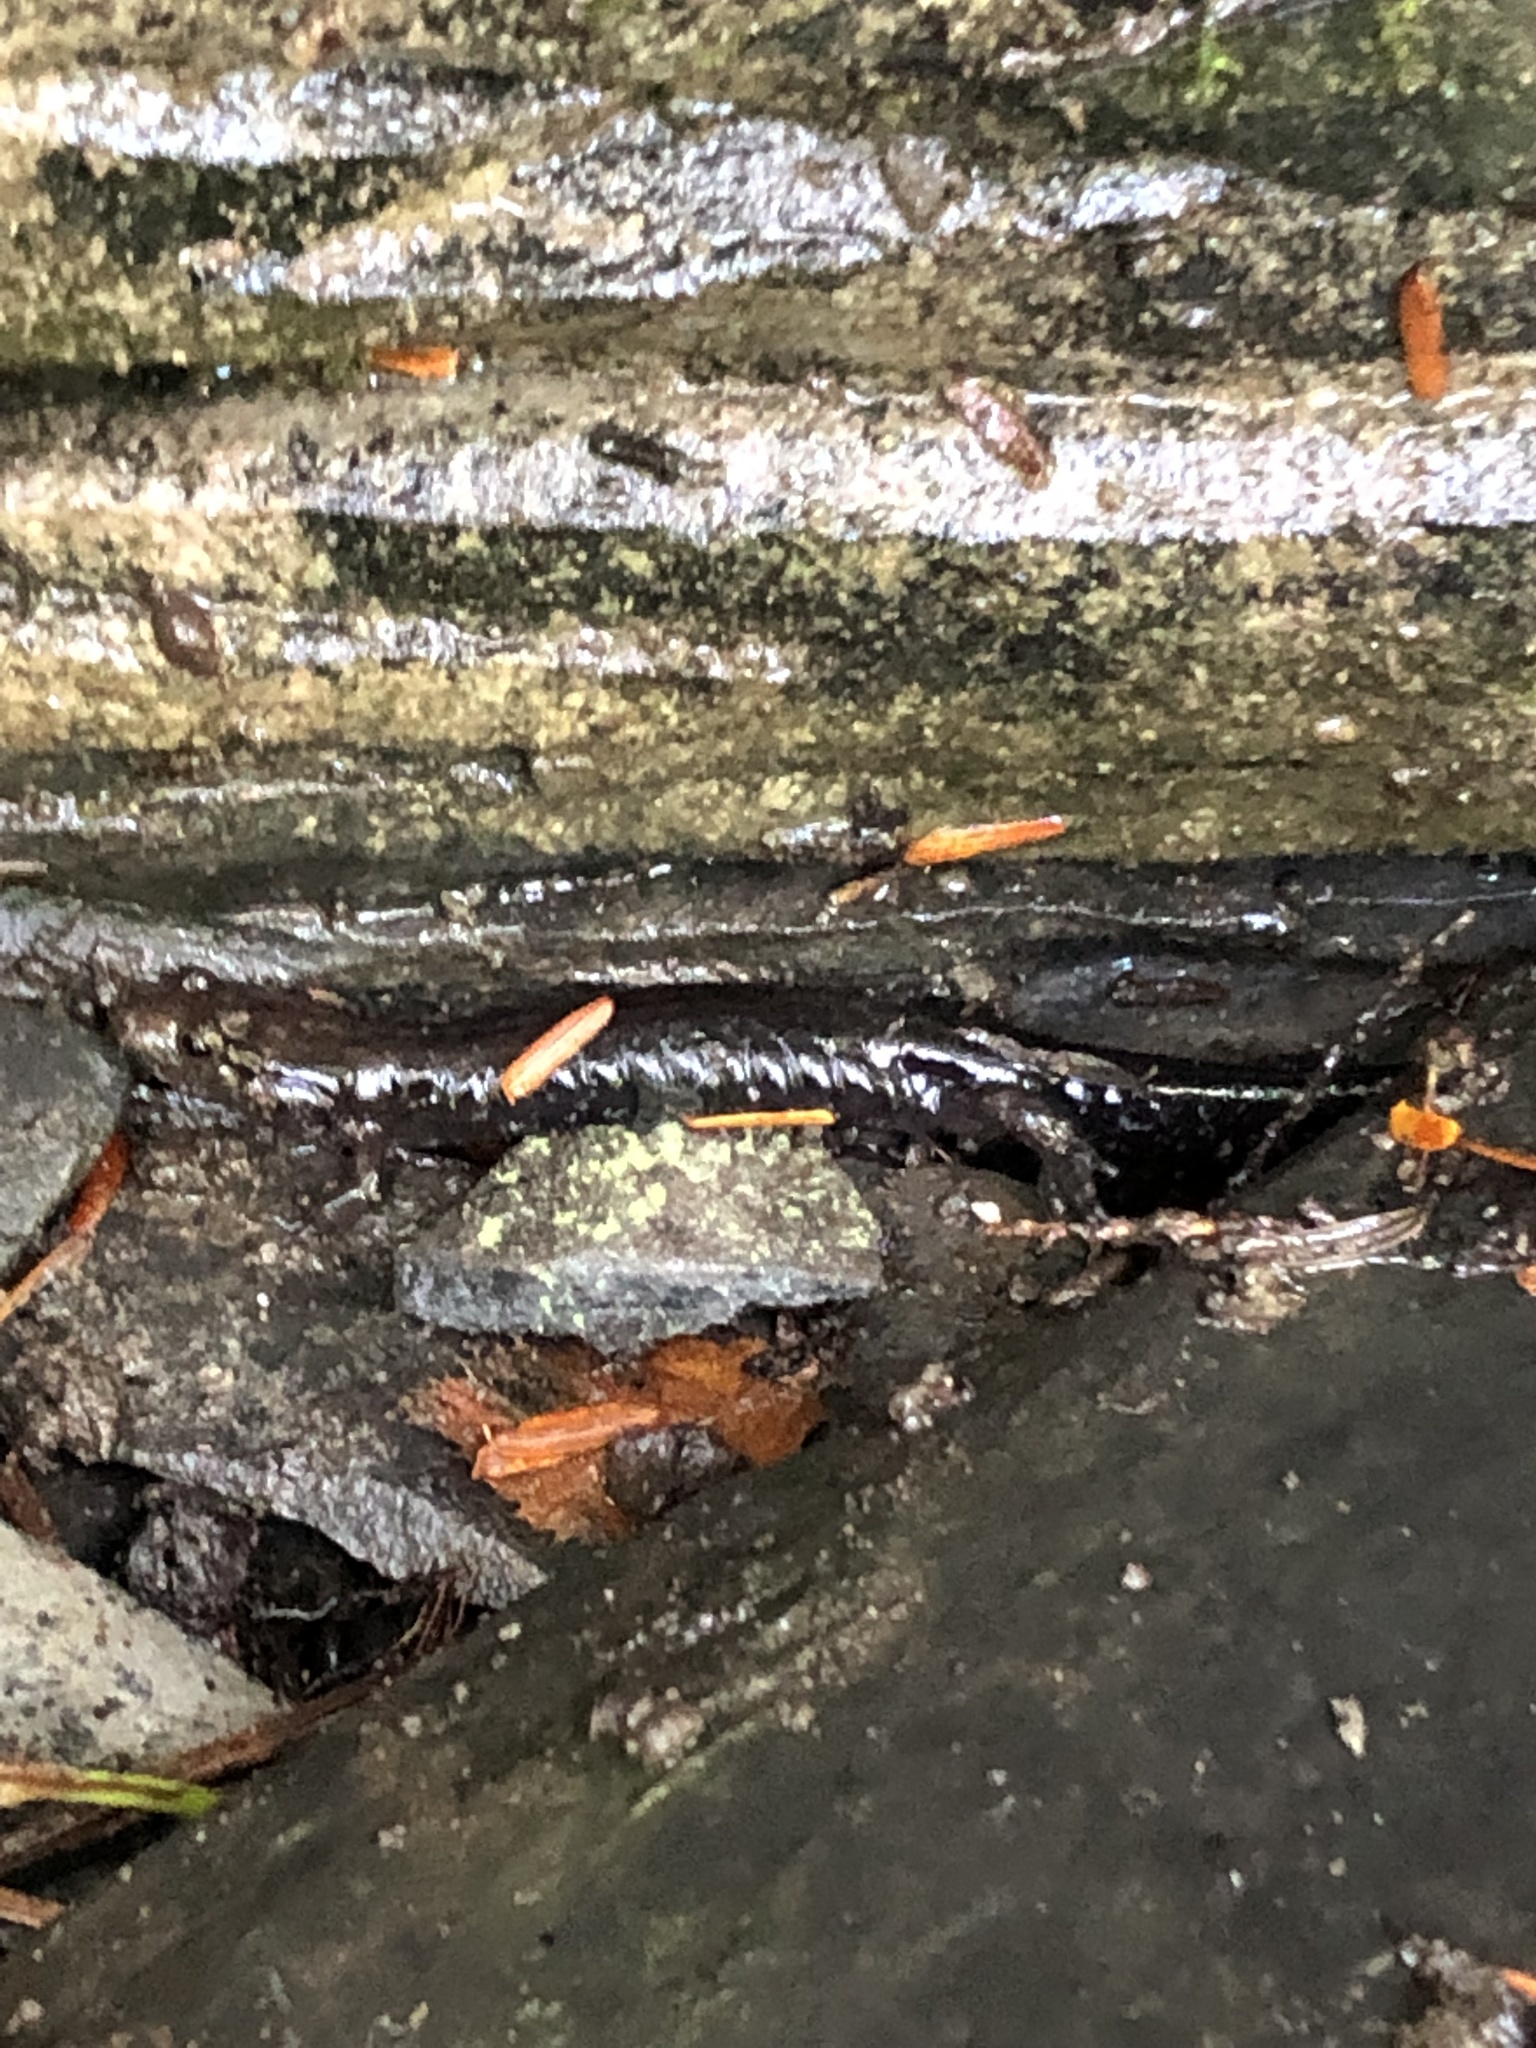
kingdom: Animalia
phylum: Chordata
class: Amphibia
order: Caudata
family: Plethodontidae
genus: Desmognathus
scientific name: Desmognathus ochrophaeus
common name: Allegheny mountain dusky salamander
